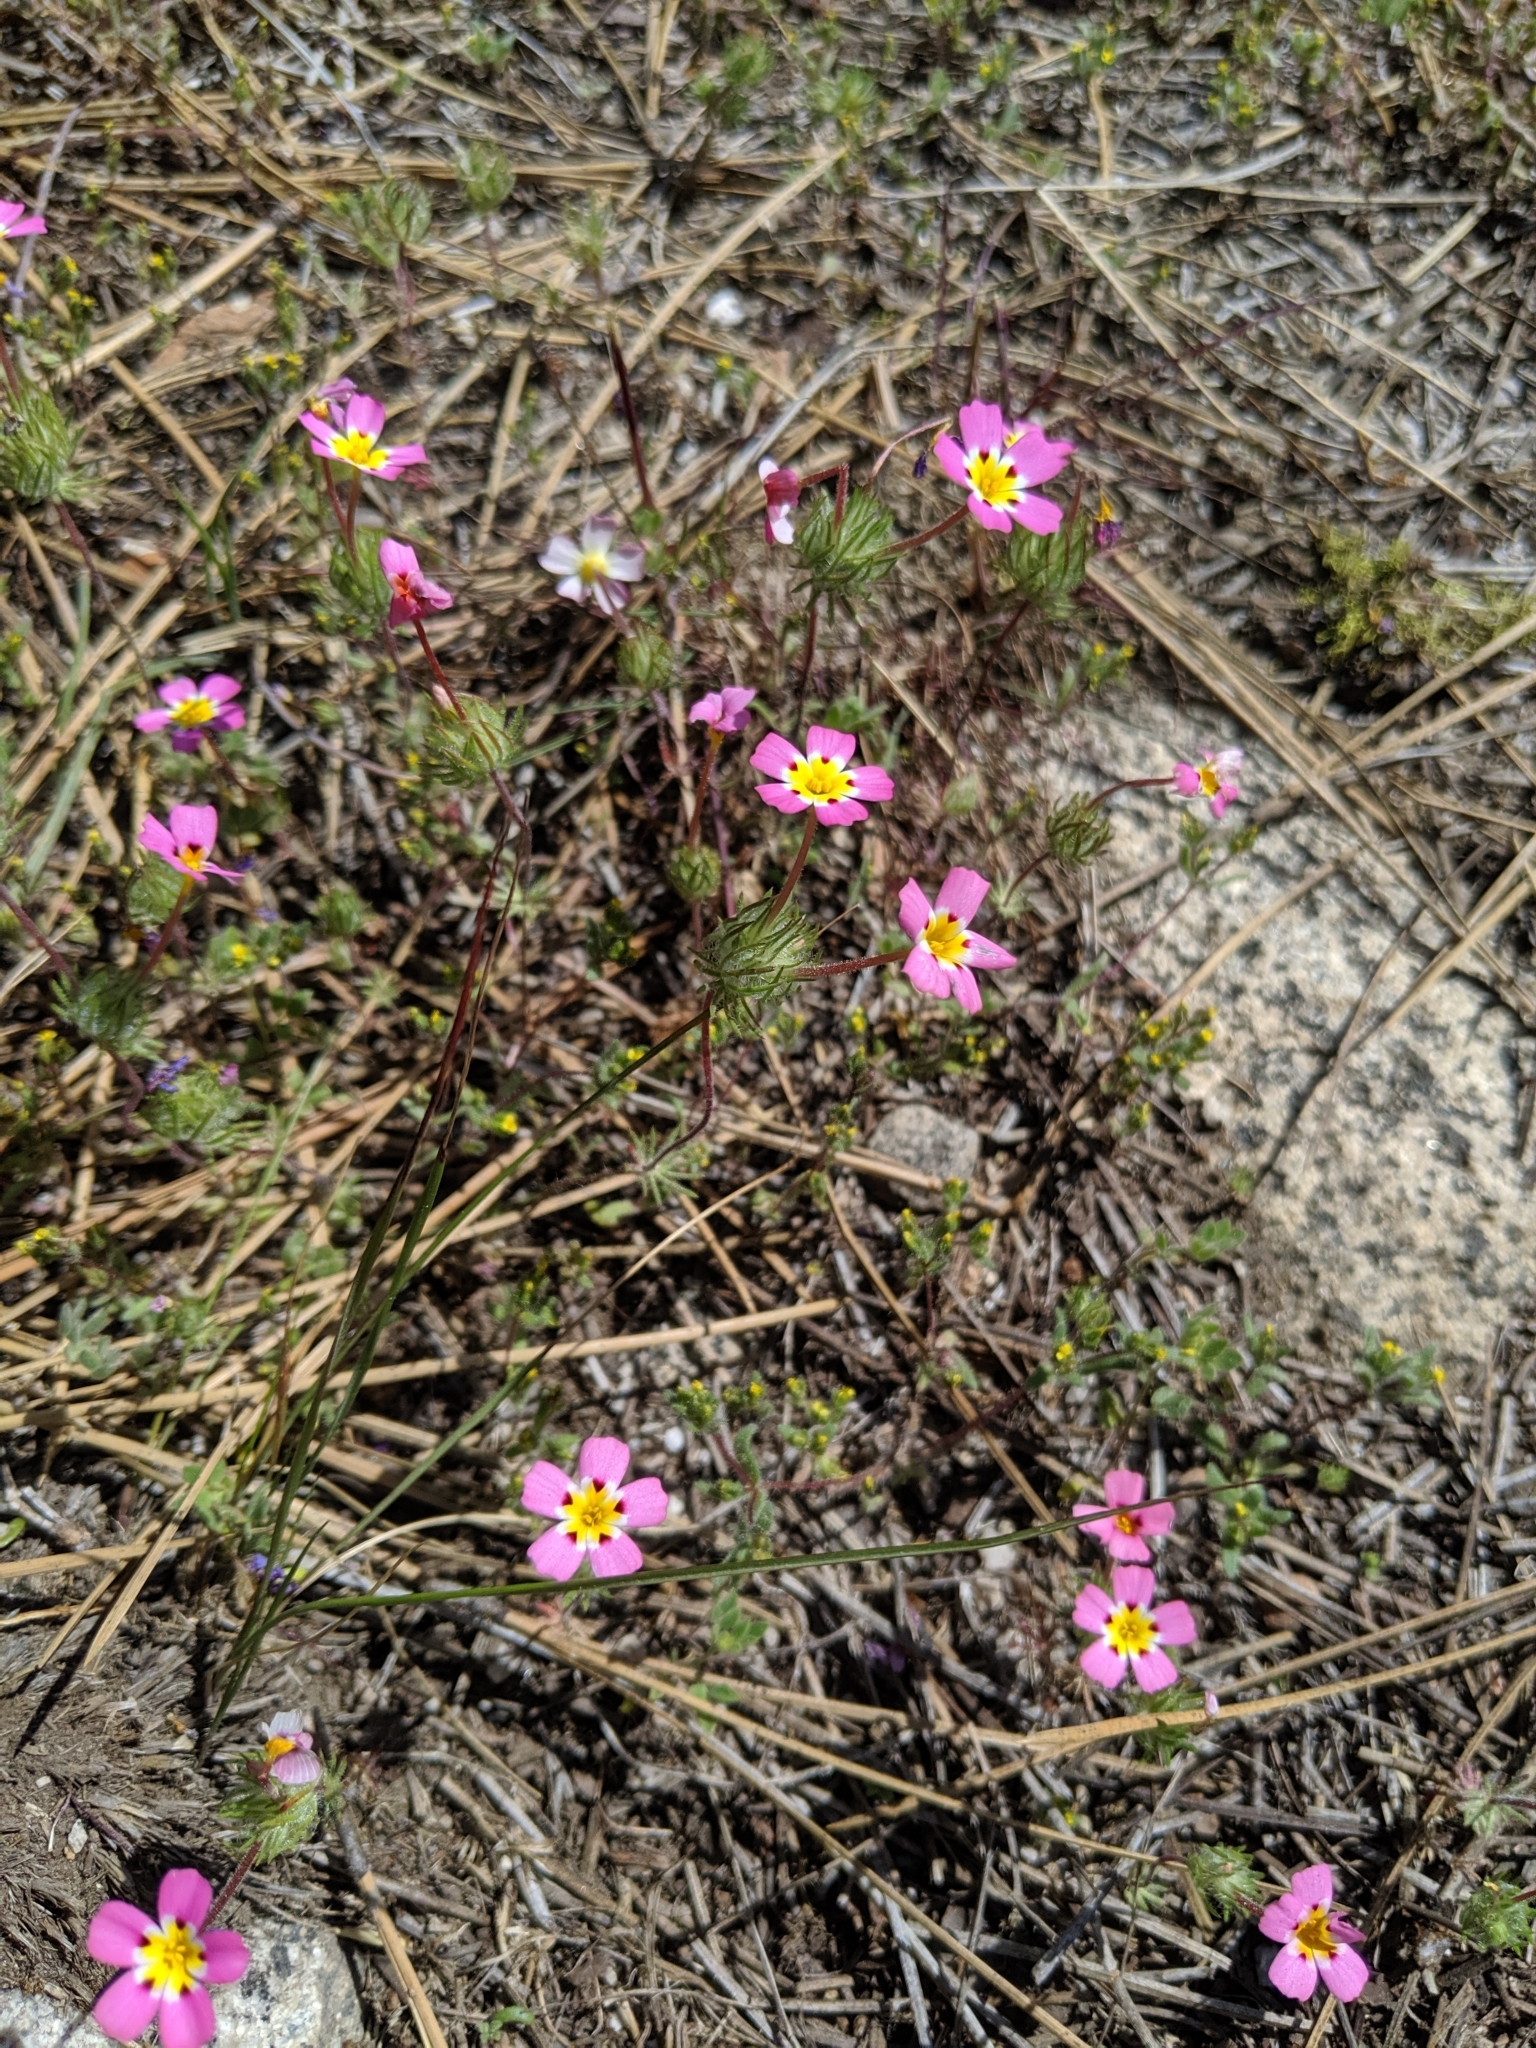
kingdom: Plantae
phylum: Tracheophyta
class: Magnoliopsida
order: Ericales
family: Polemoniaceae
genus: Leptosiphon
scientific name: Leptosiphon ciliatus
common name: Whiskerbrush
